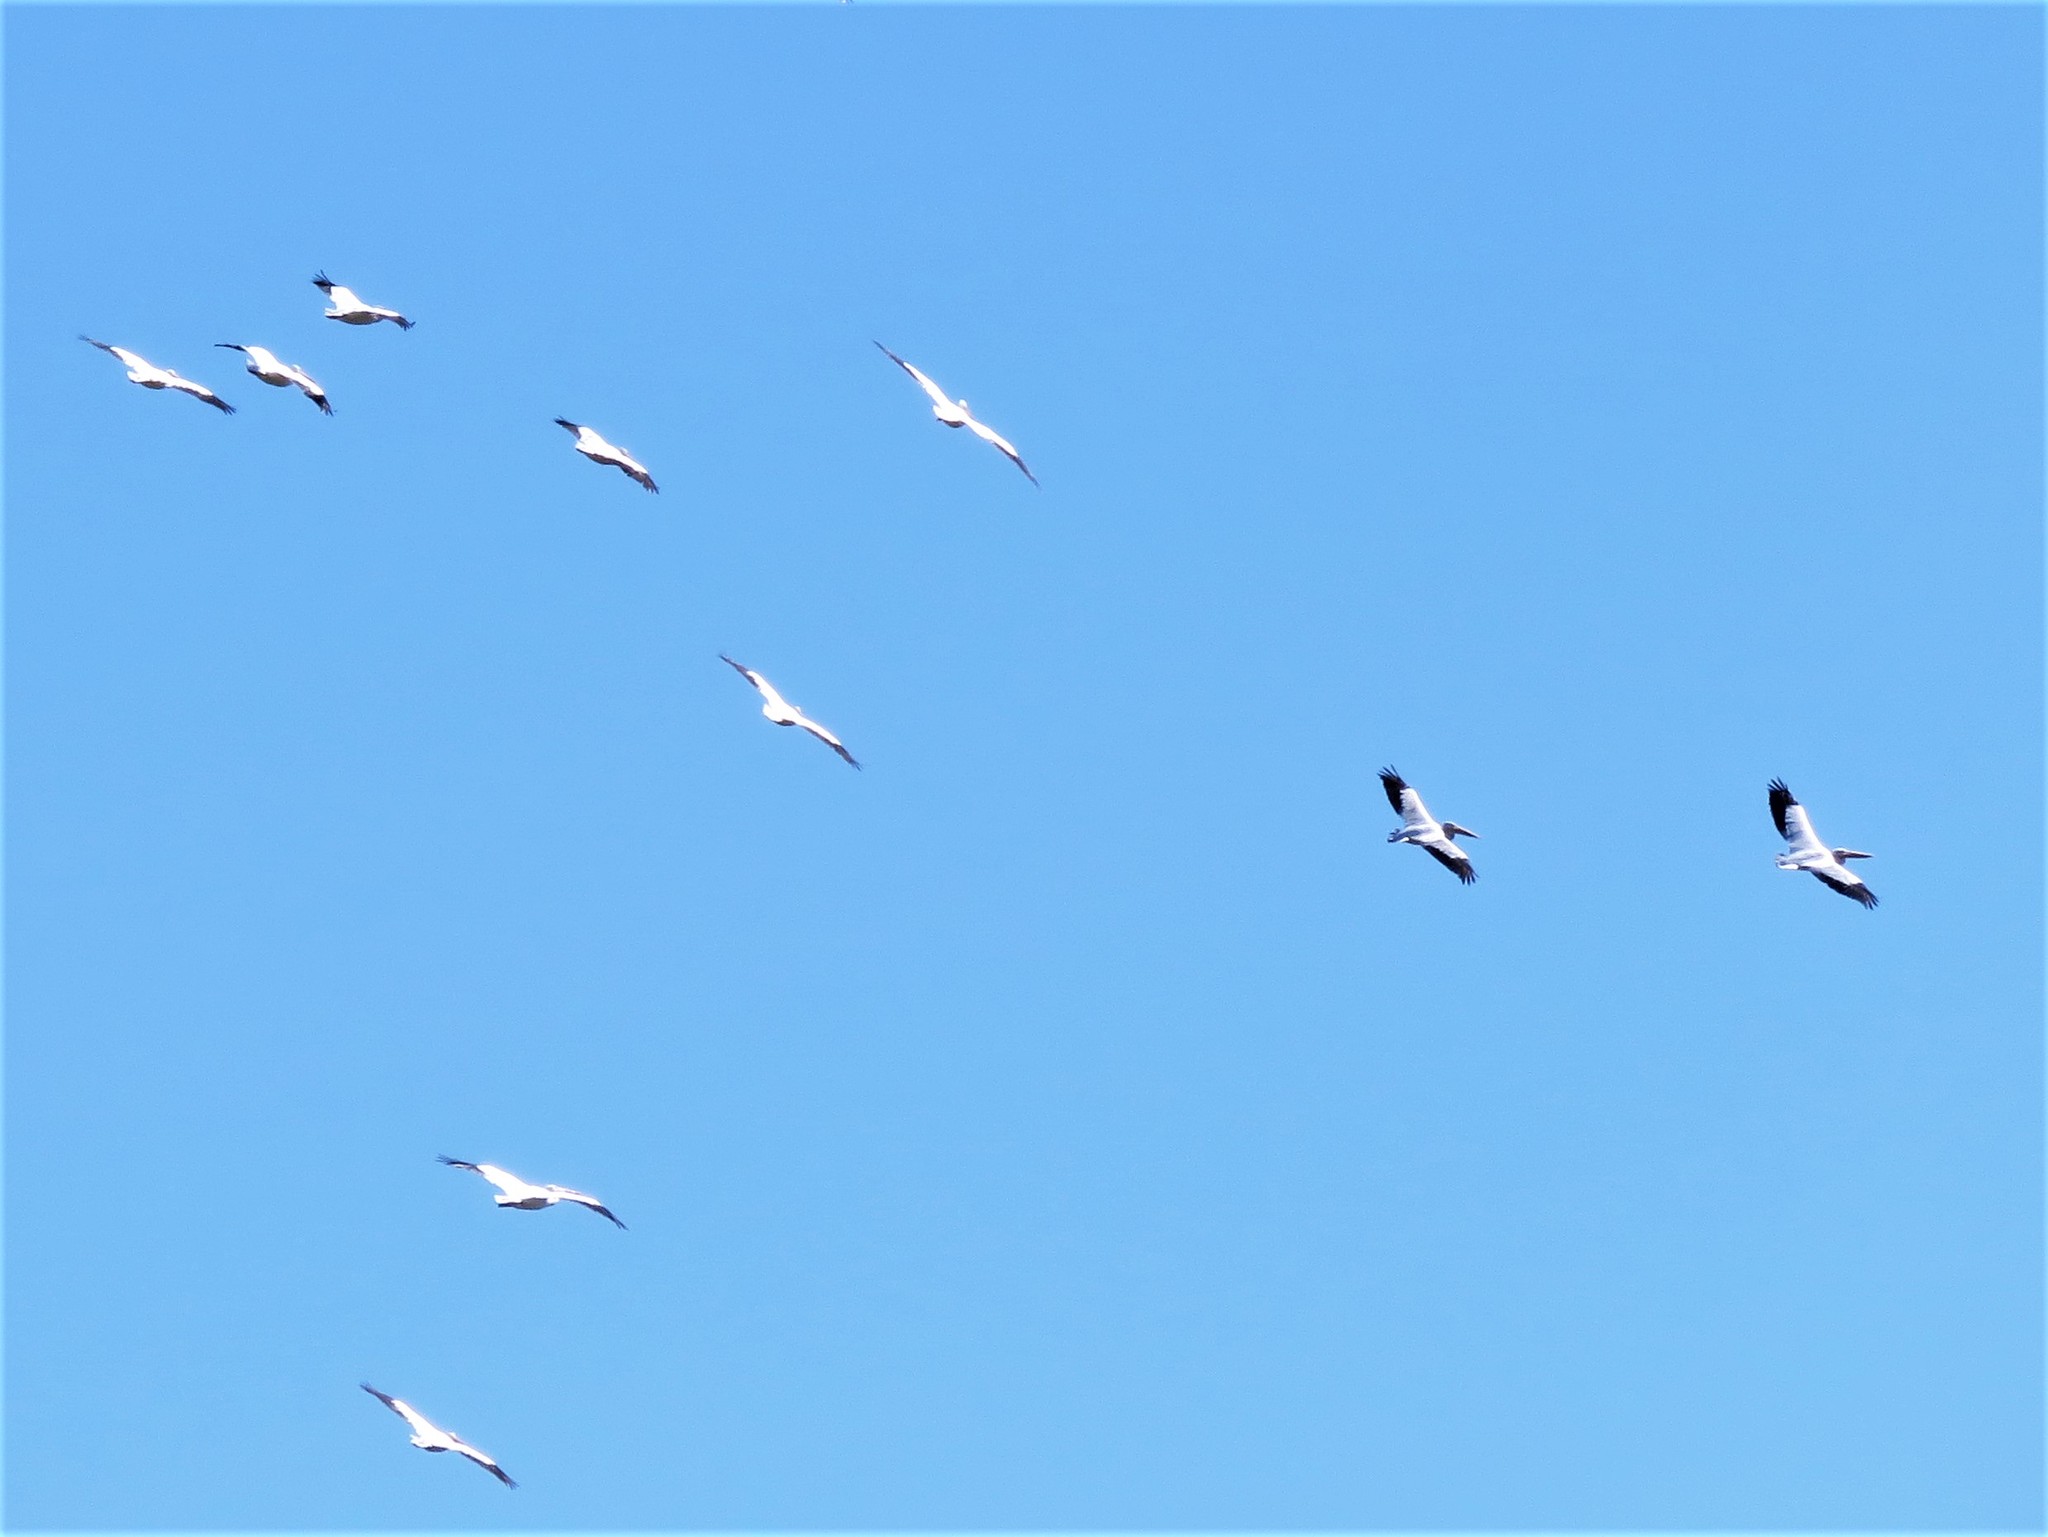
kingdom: Animalia
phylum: Chordata
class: Aves
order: Pelecaniformes
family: Pelecanidae
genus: Pelecanus
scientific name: Pelecanus erythrorhynchos
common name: American white pelican
